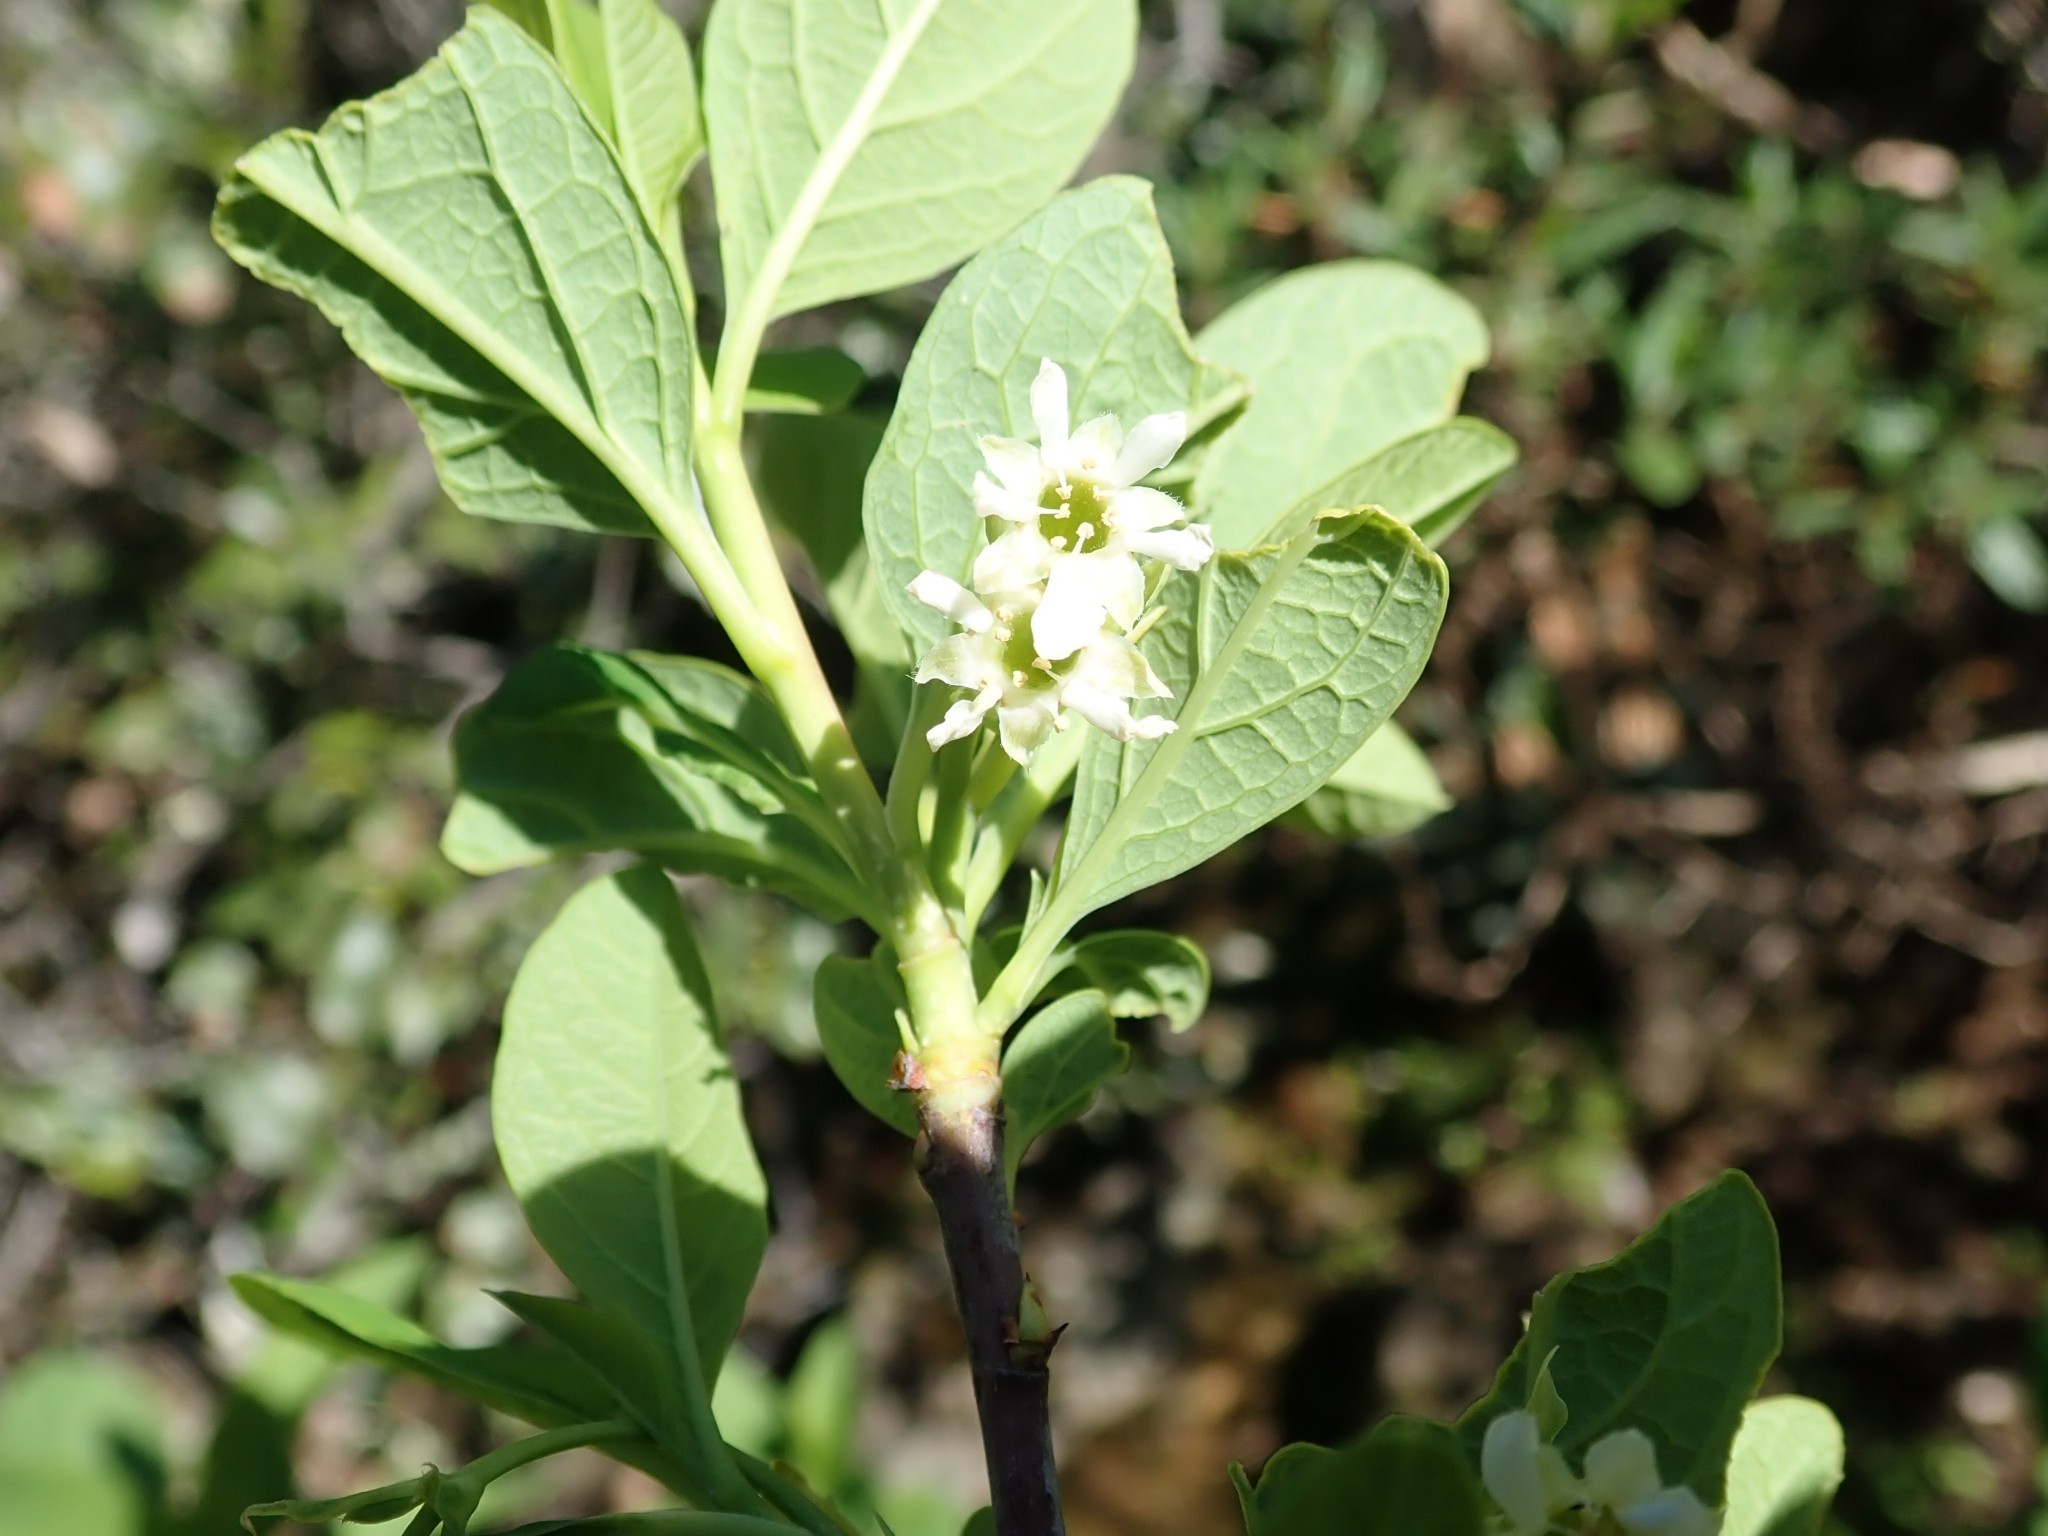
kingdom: Plantae
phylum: Tracheophyta
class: Magnoliopsida
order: Rosales
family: Rosaceae
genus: Oemleria
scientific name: Oemleria cerasiformis
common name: Osoberry
